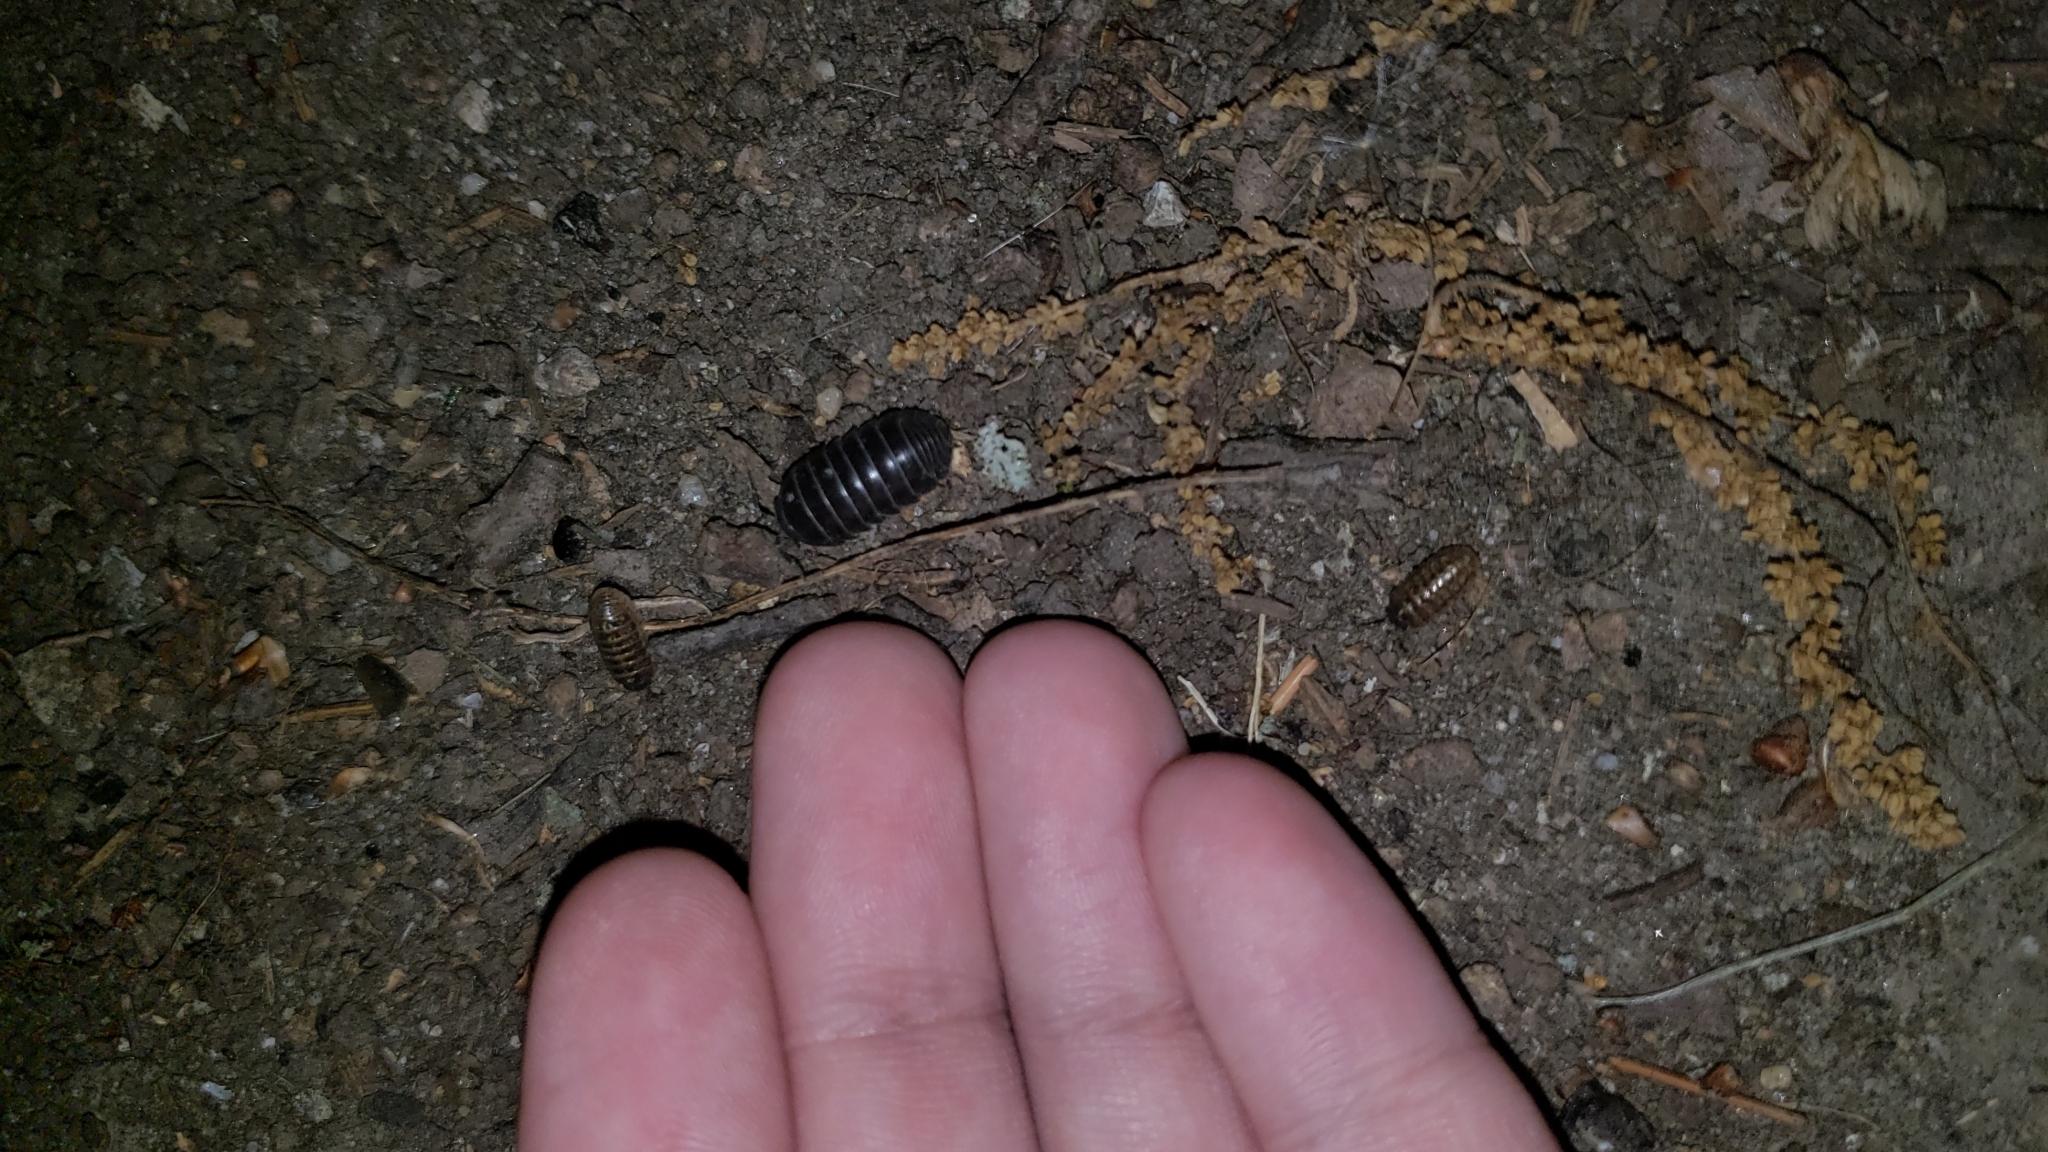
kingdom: Animalia
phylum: Arthropoda
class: Malacostraca
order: Isopoda
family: Armadillidiidae
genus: Armadillidium
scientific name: Armadillidium vulgare
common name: Common pill woodlouse
